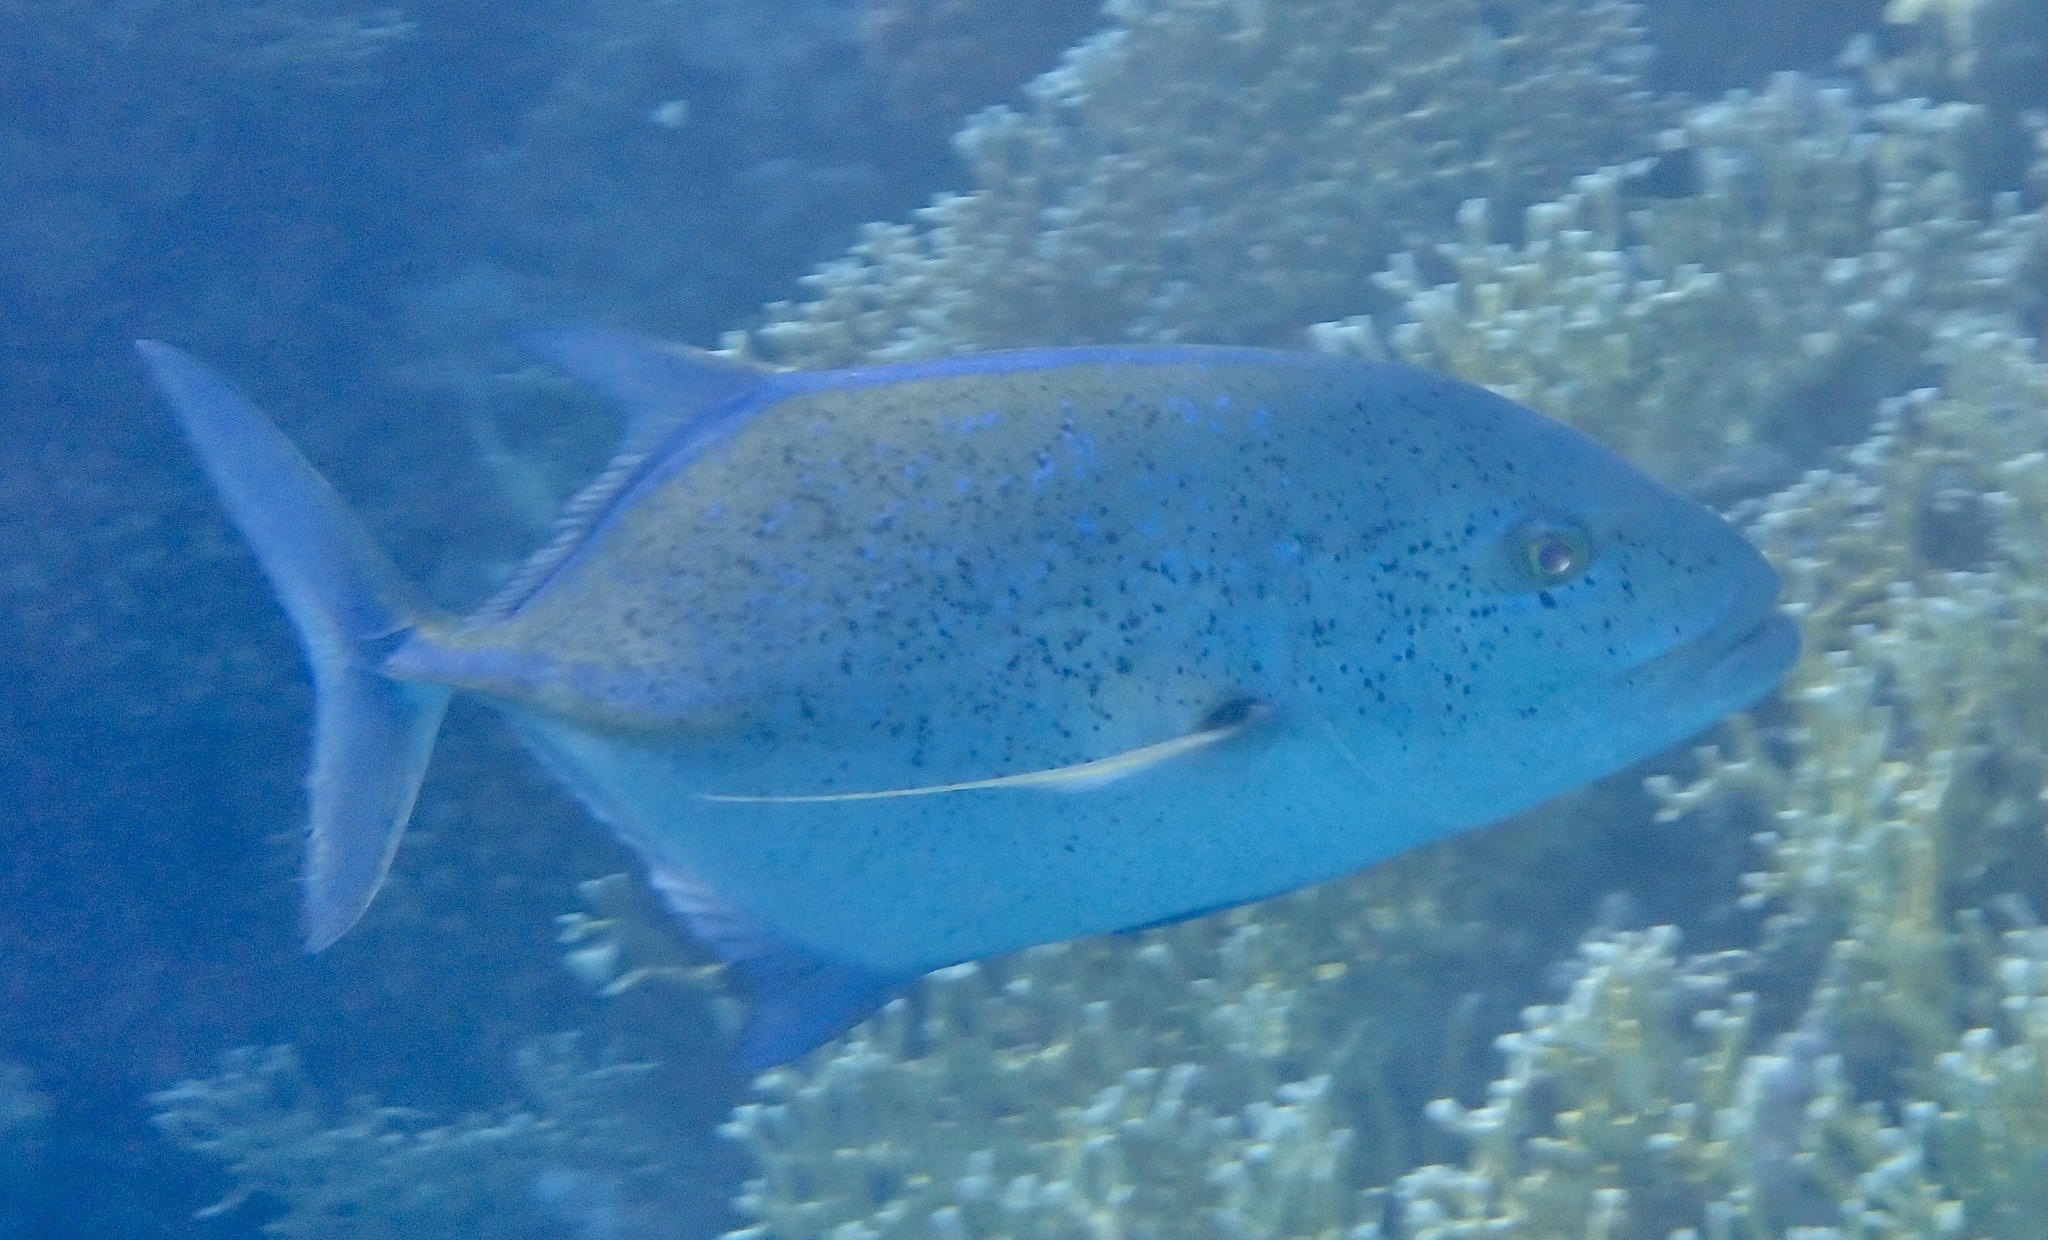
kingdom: Animalia
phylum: Chordata
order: Perciformes
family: Carangidae
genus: Caranx
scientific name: Caranx melampygus
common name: Bluefin trevally
